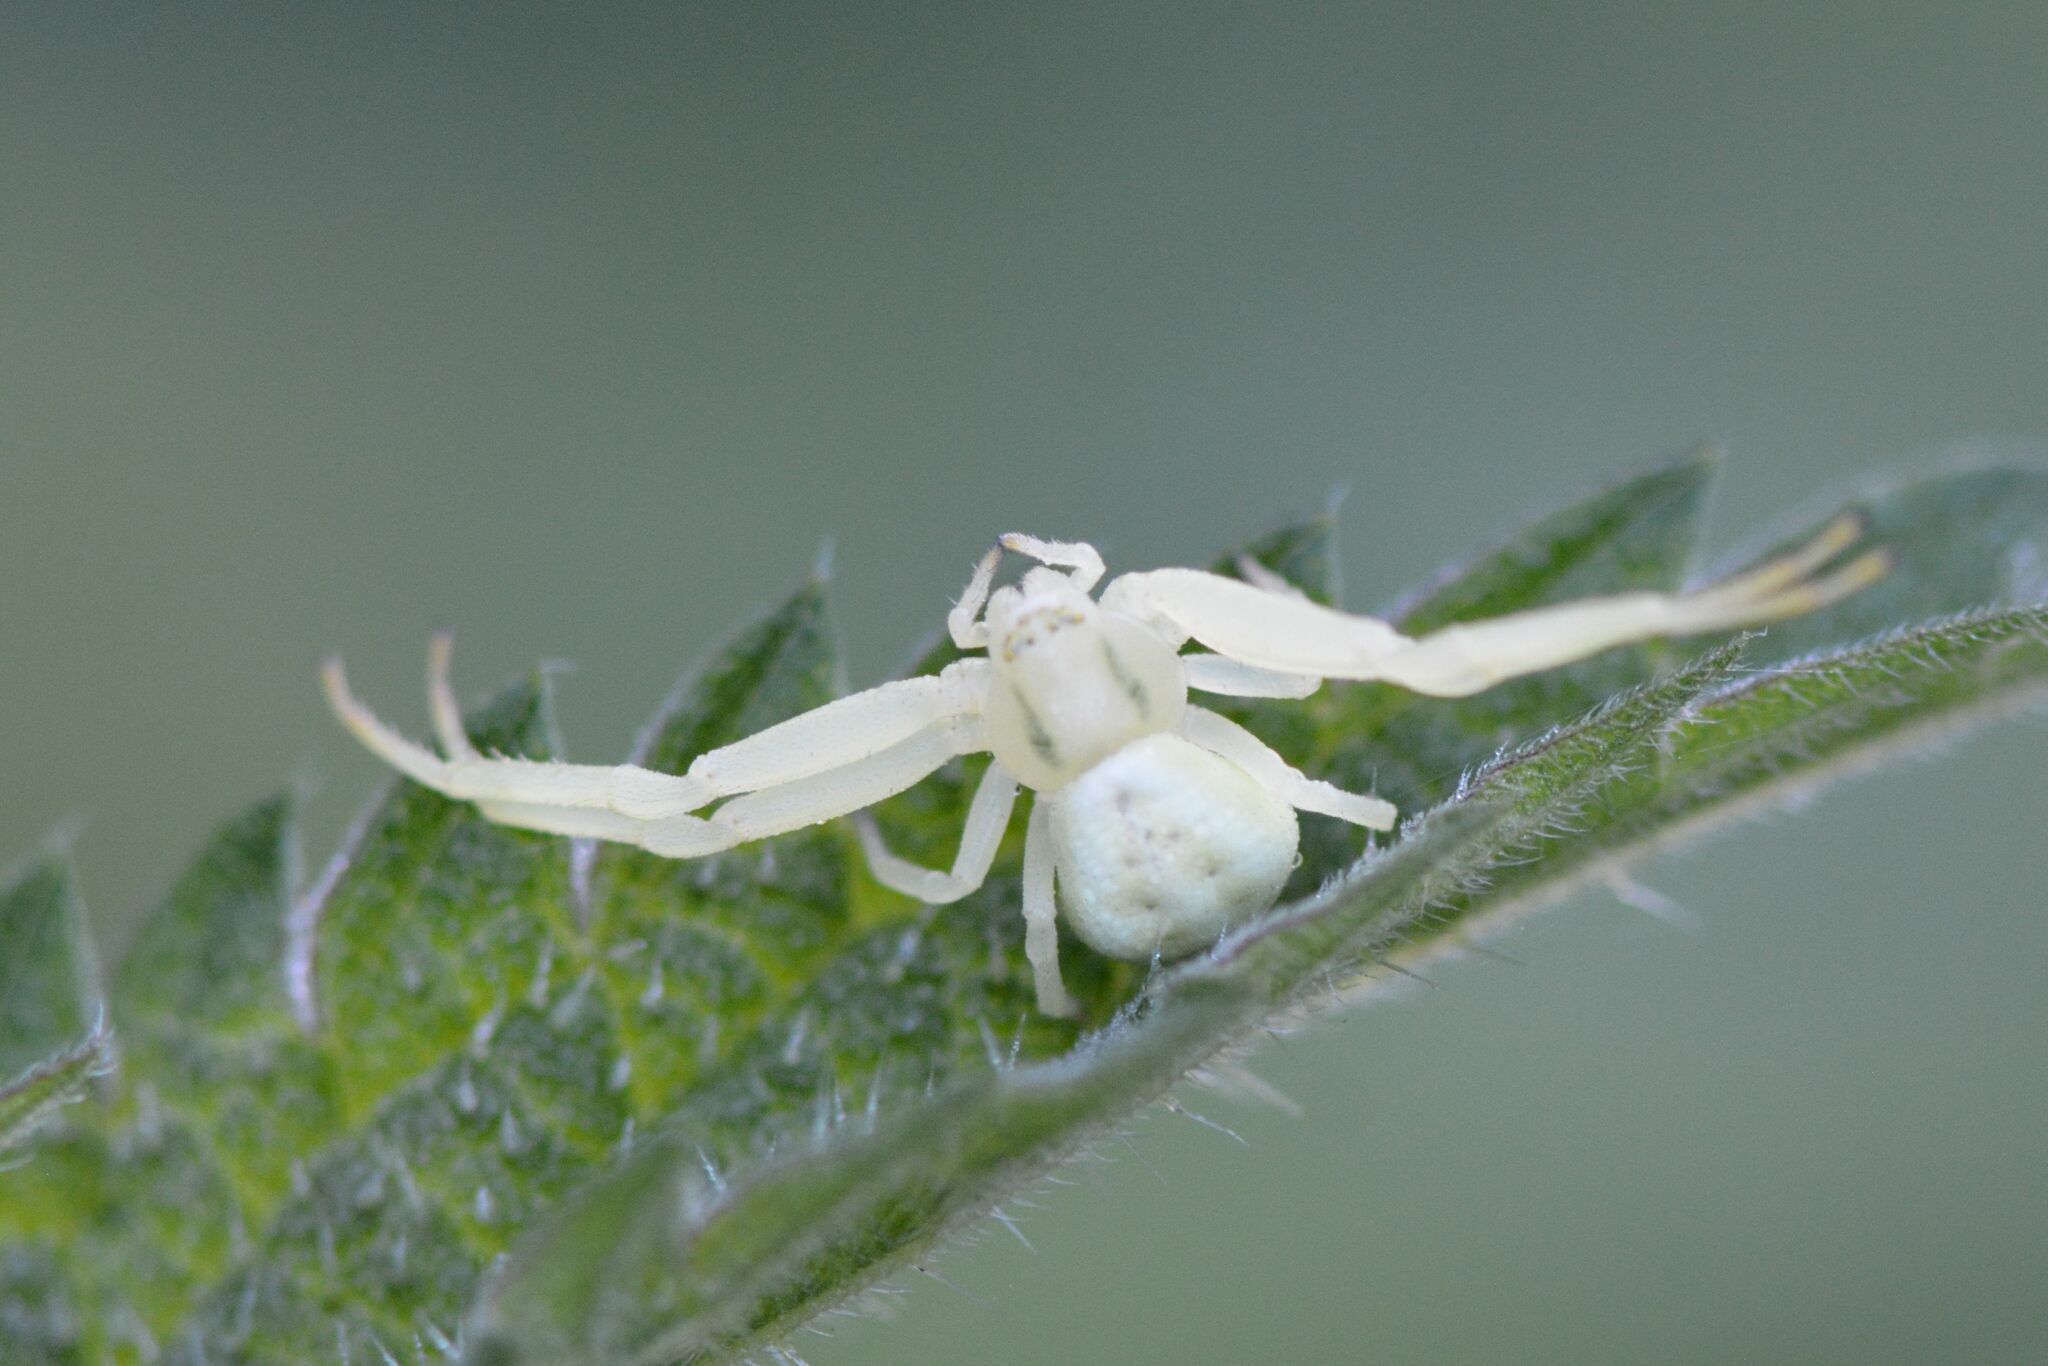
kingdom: Animalia
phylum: Arthropoda
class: Arachnida
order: Araneae
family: Thomisidae
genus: Misumena
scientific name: Misumena vatia
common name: Goldenrod crab spider
